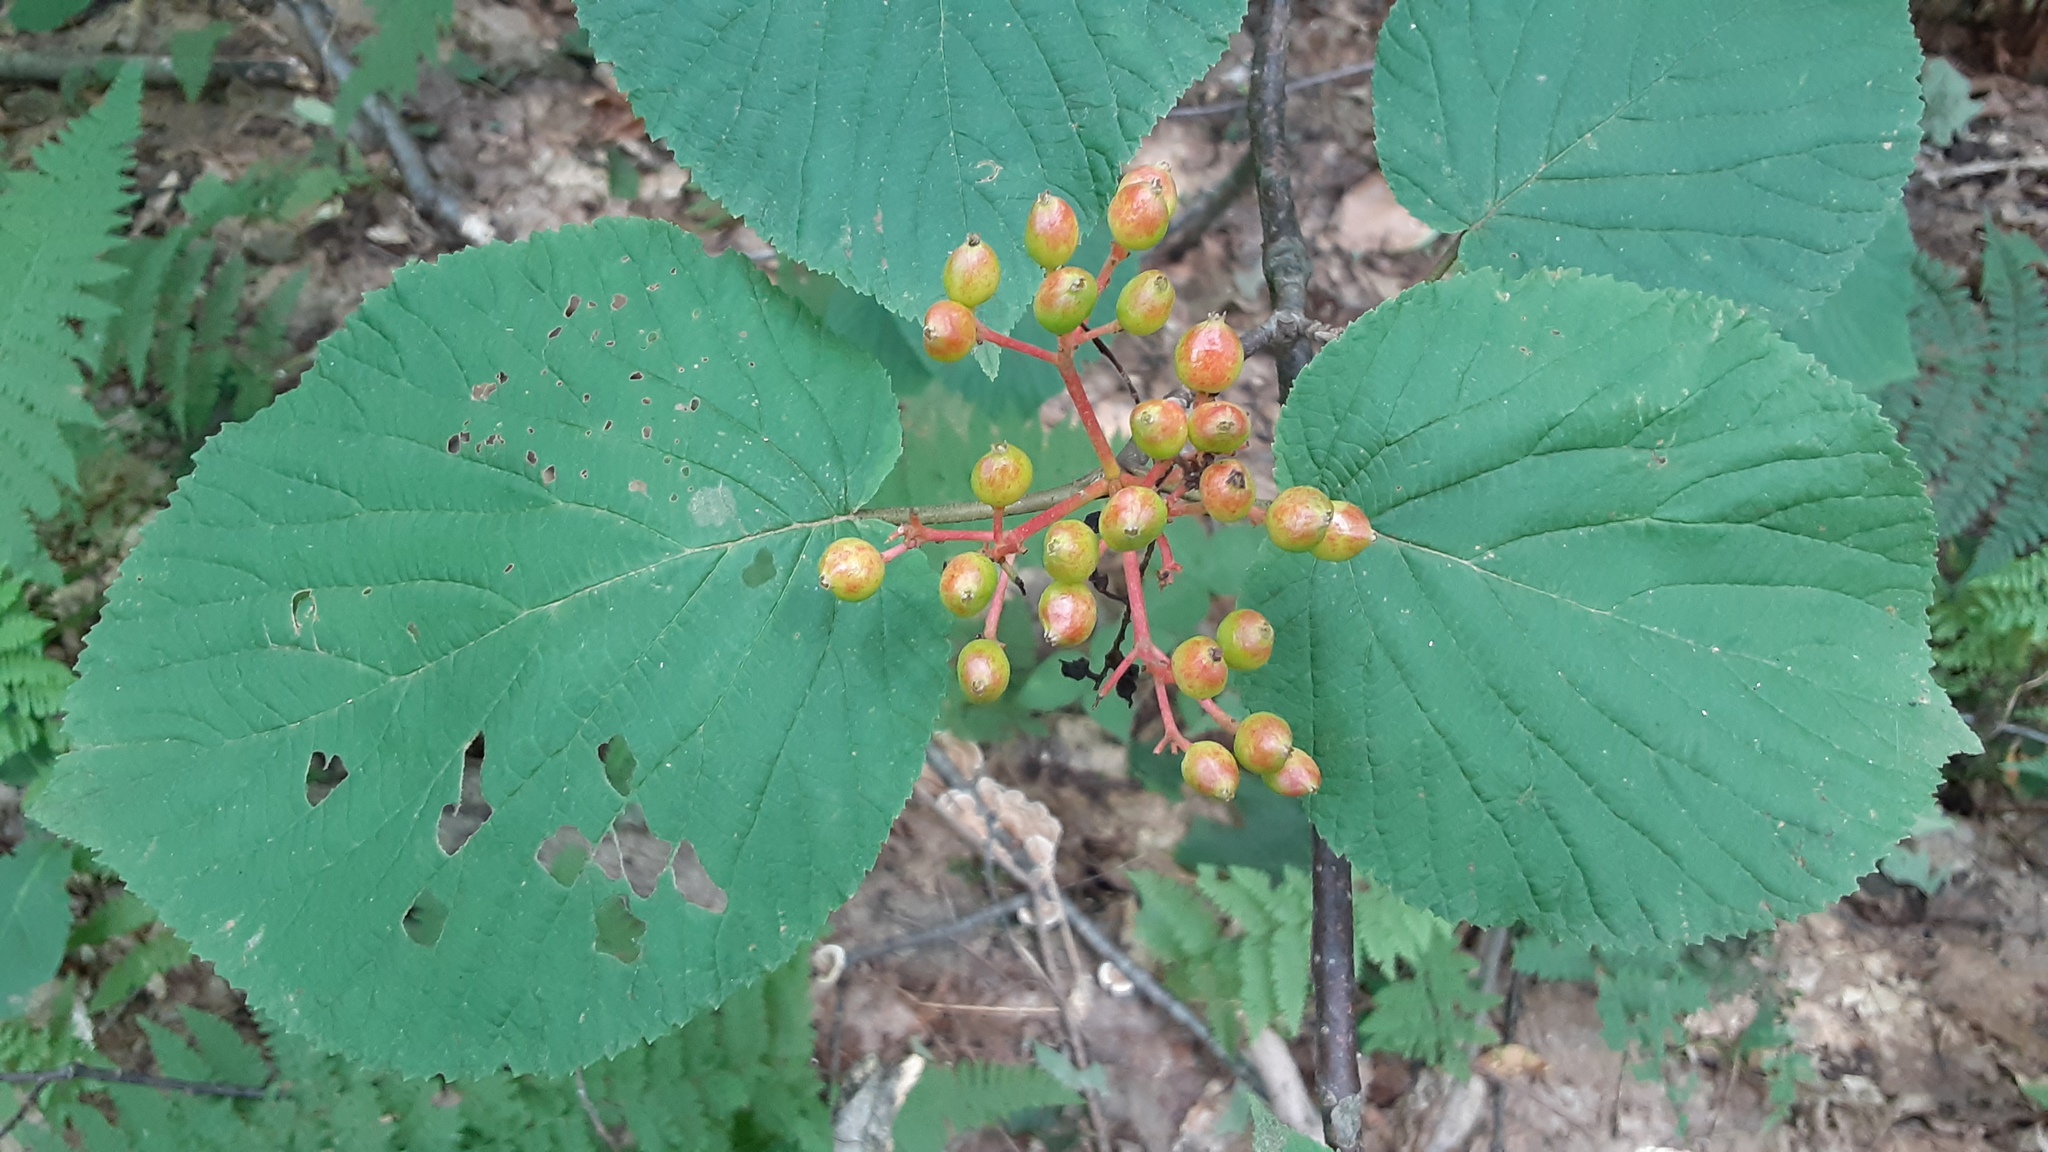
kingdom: Plantae
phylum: Tracheophyta
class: Magnoliopsida
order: Dipsacales
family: Viburnaceae
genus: Viburnum
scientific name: Viburnum lantanoides
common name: Hobblebush
